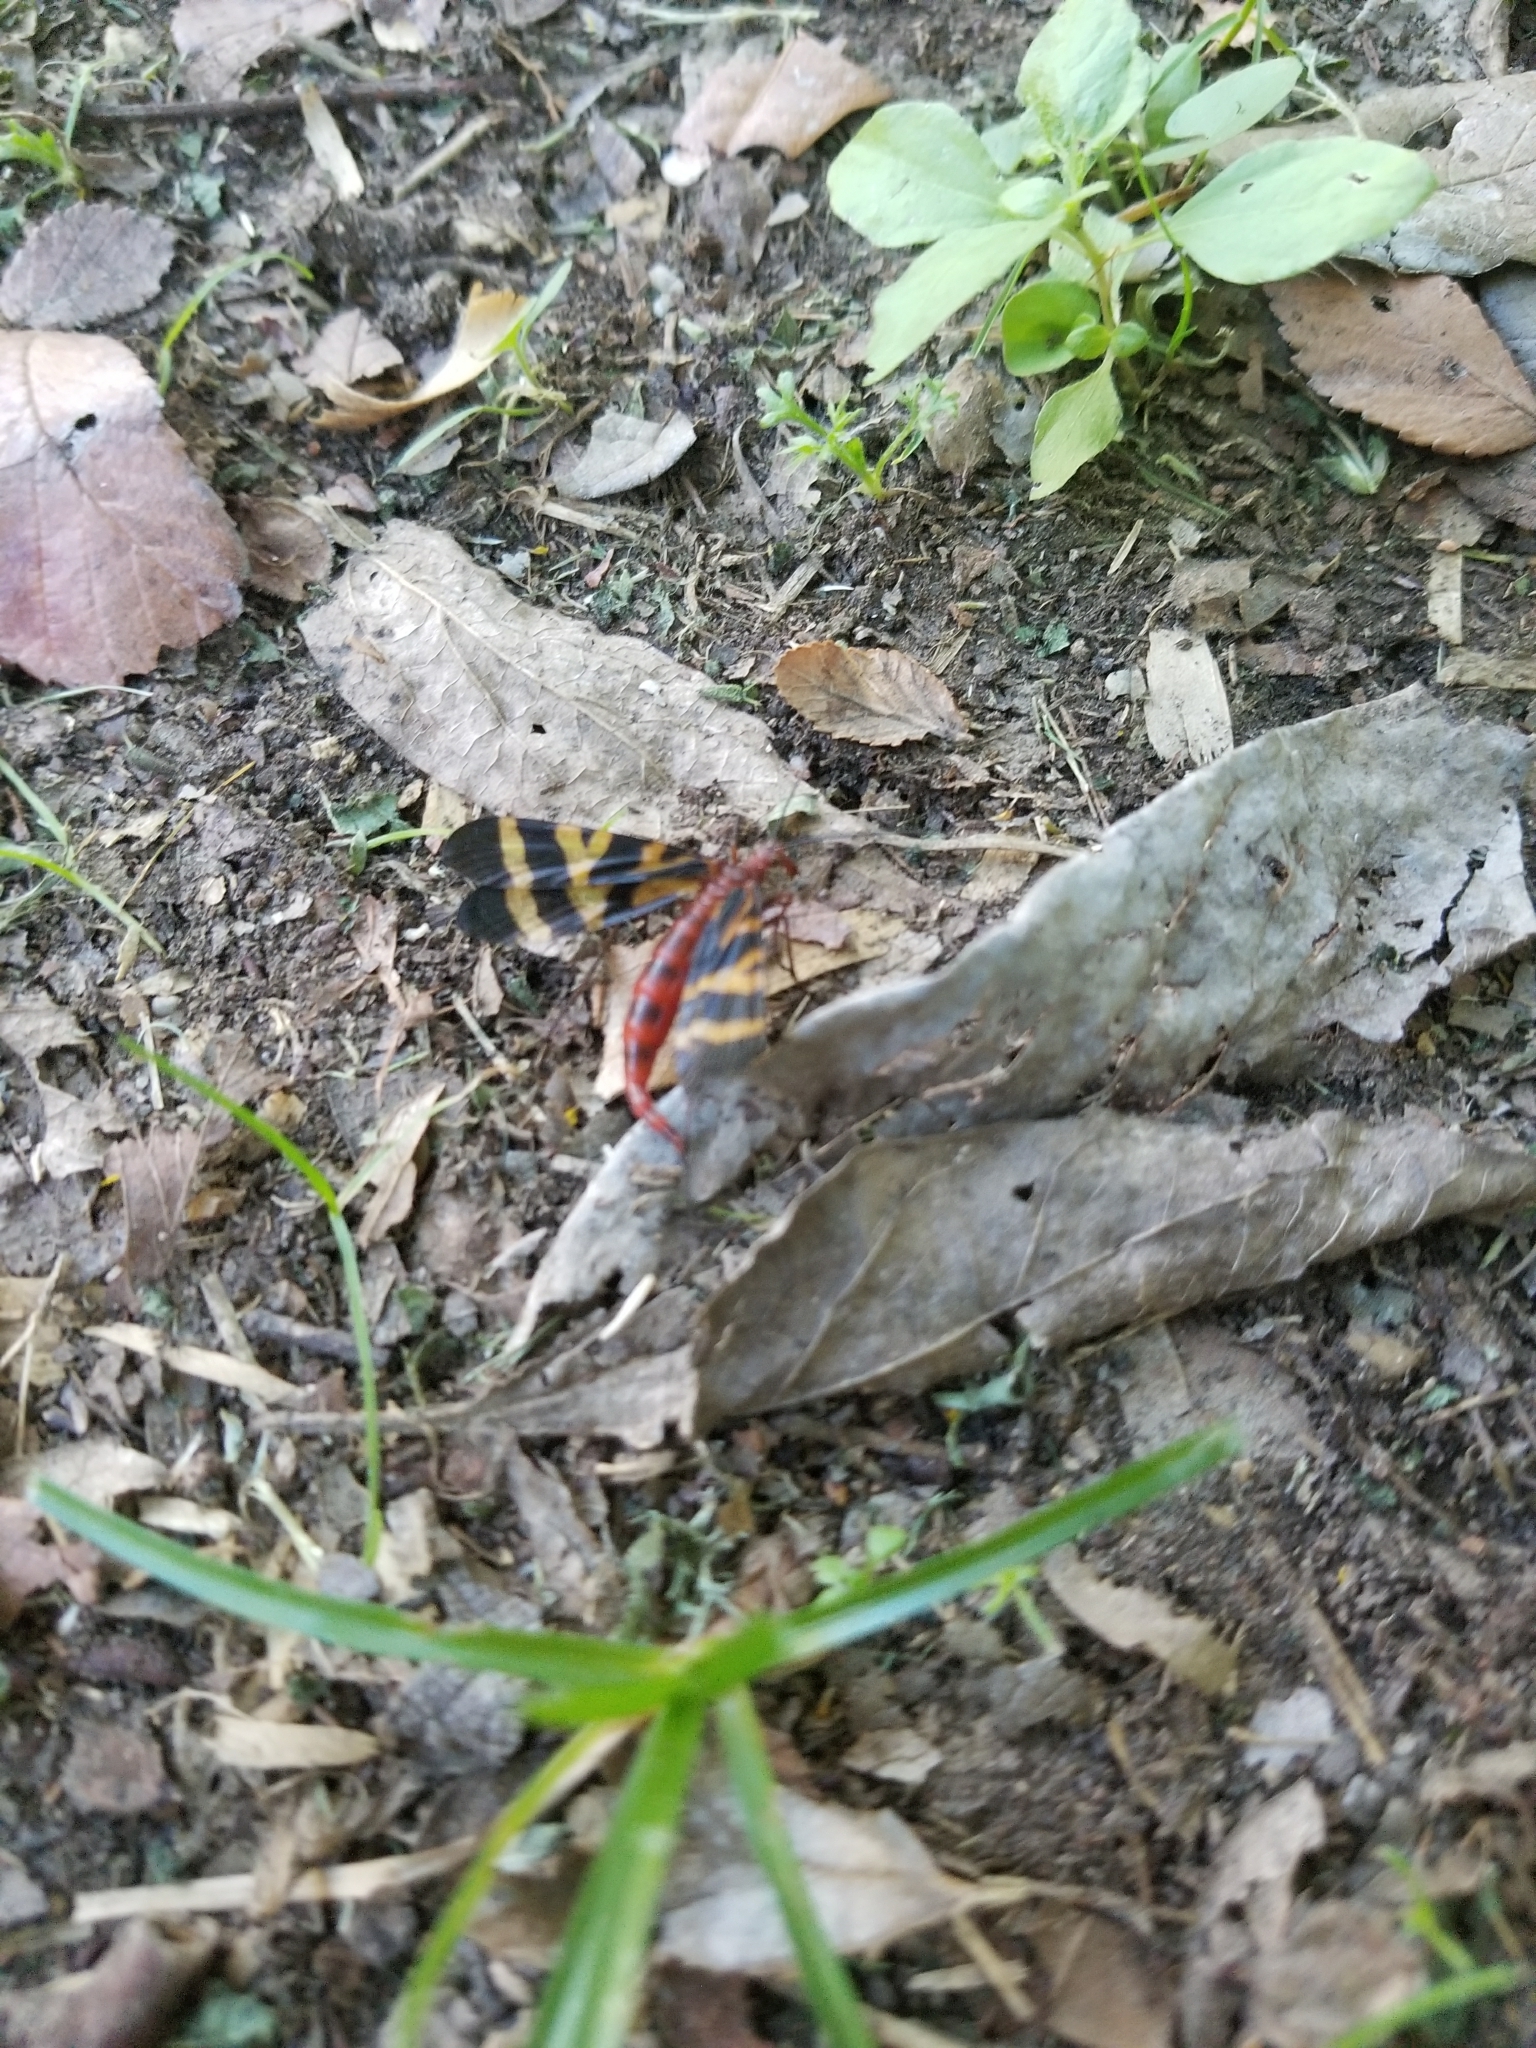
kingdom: Animalia
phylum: Arthropoda
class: Insecta
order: Mecoptera
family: Panorpidae
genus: Panorpa
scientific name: Panorpa nuptialis
